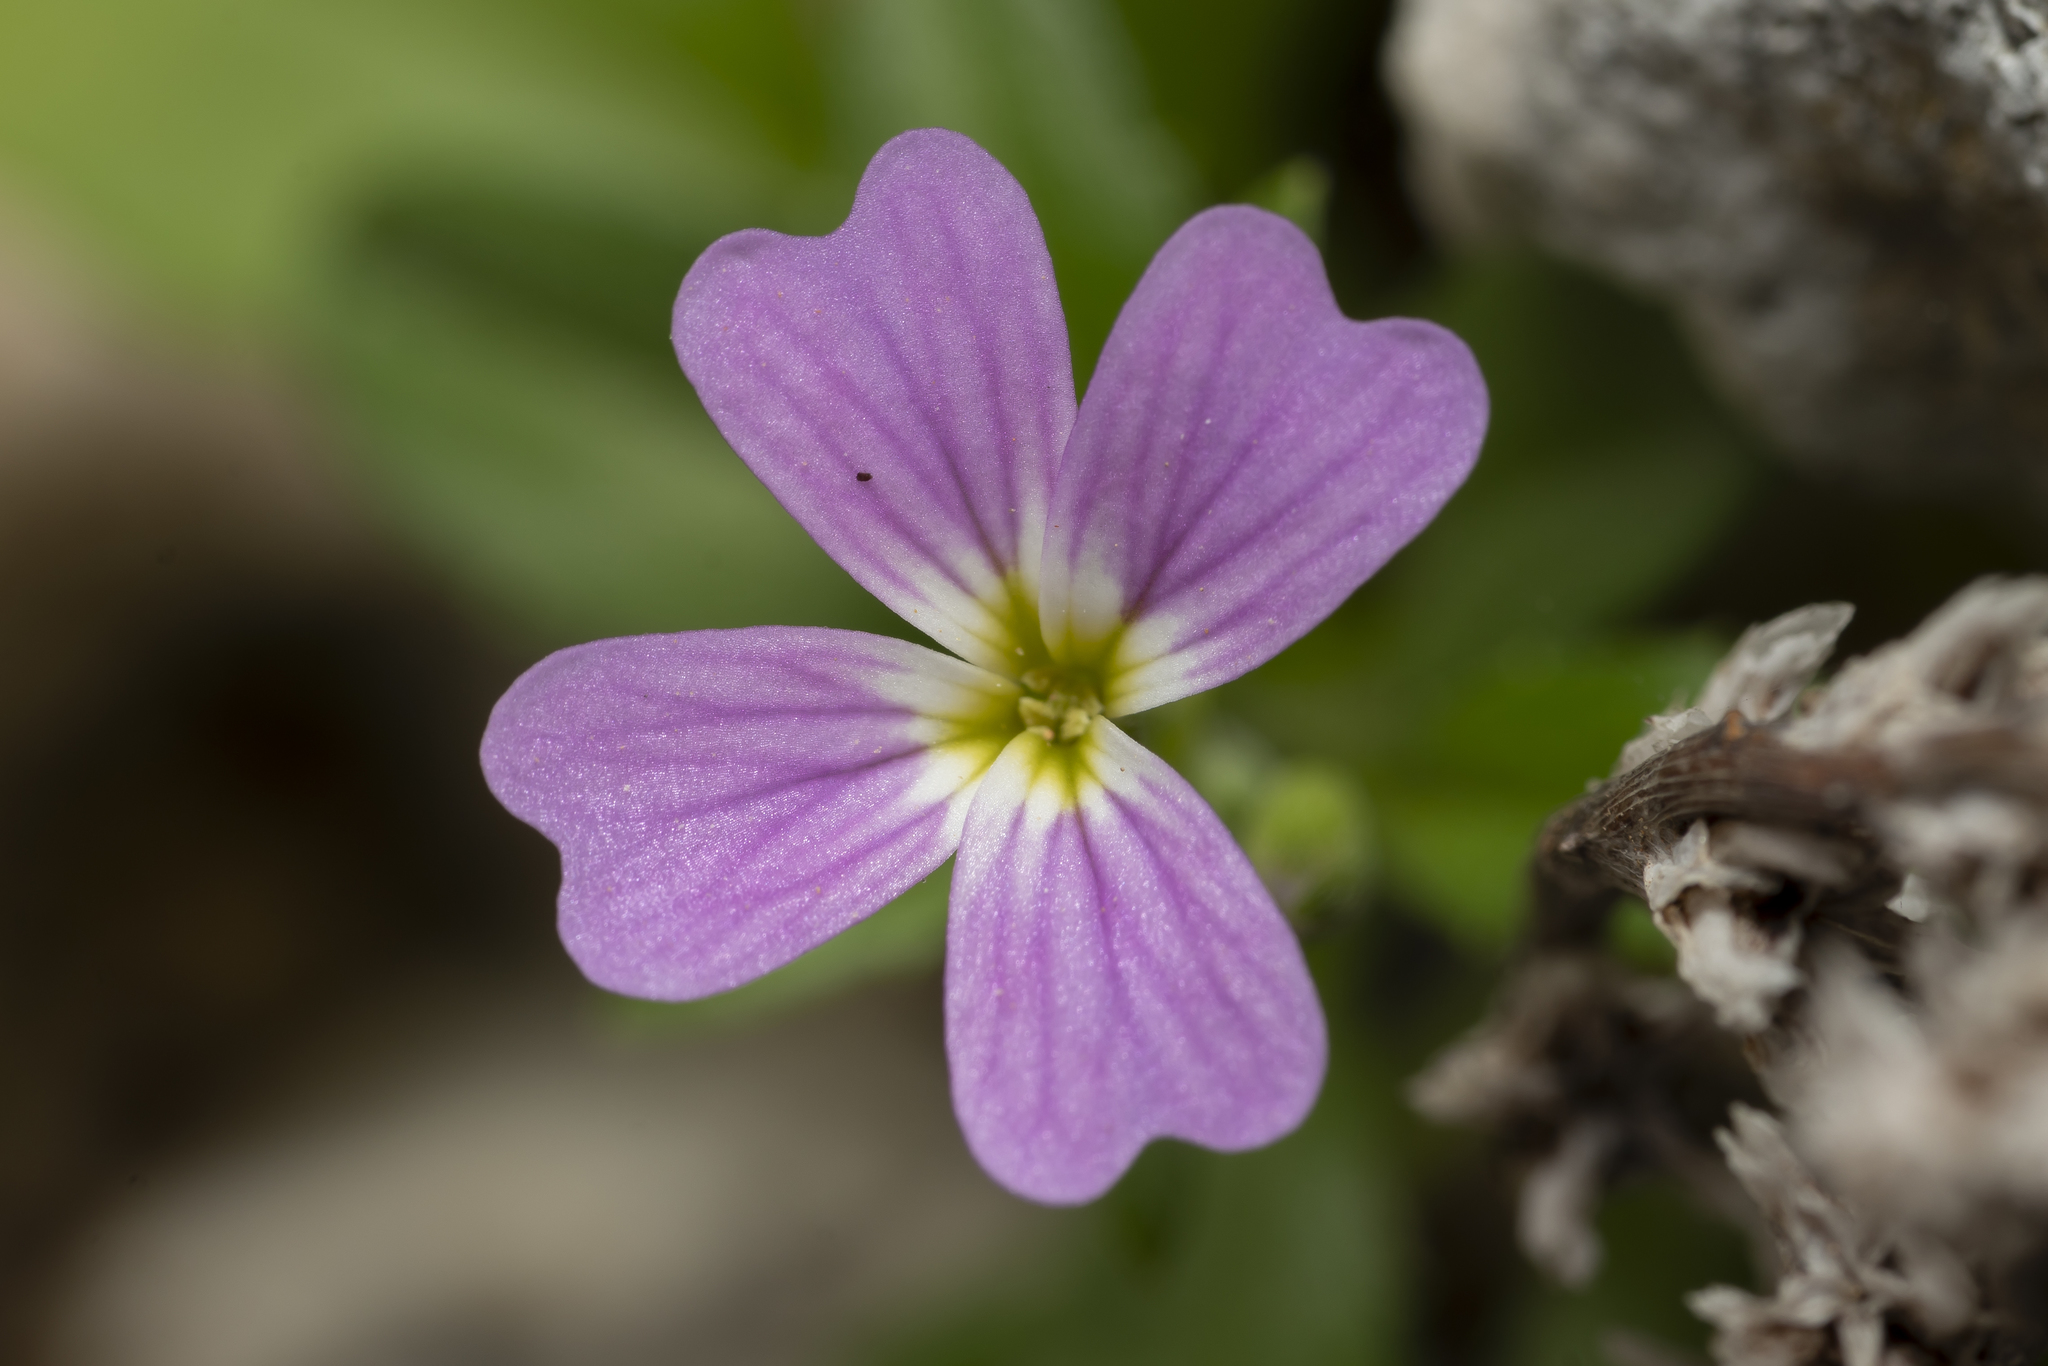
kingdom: Plantae
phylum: Tracheophyta
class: Magnoliopsida
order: Brassicales
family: Brassicaceae
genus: Malcolmia
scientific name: Malcolmia
